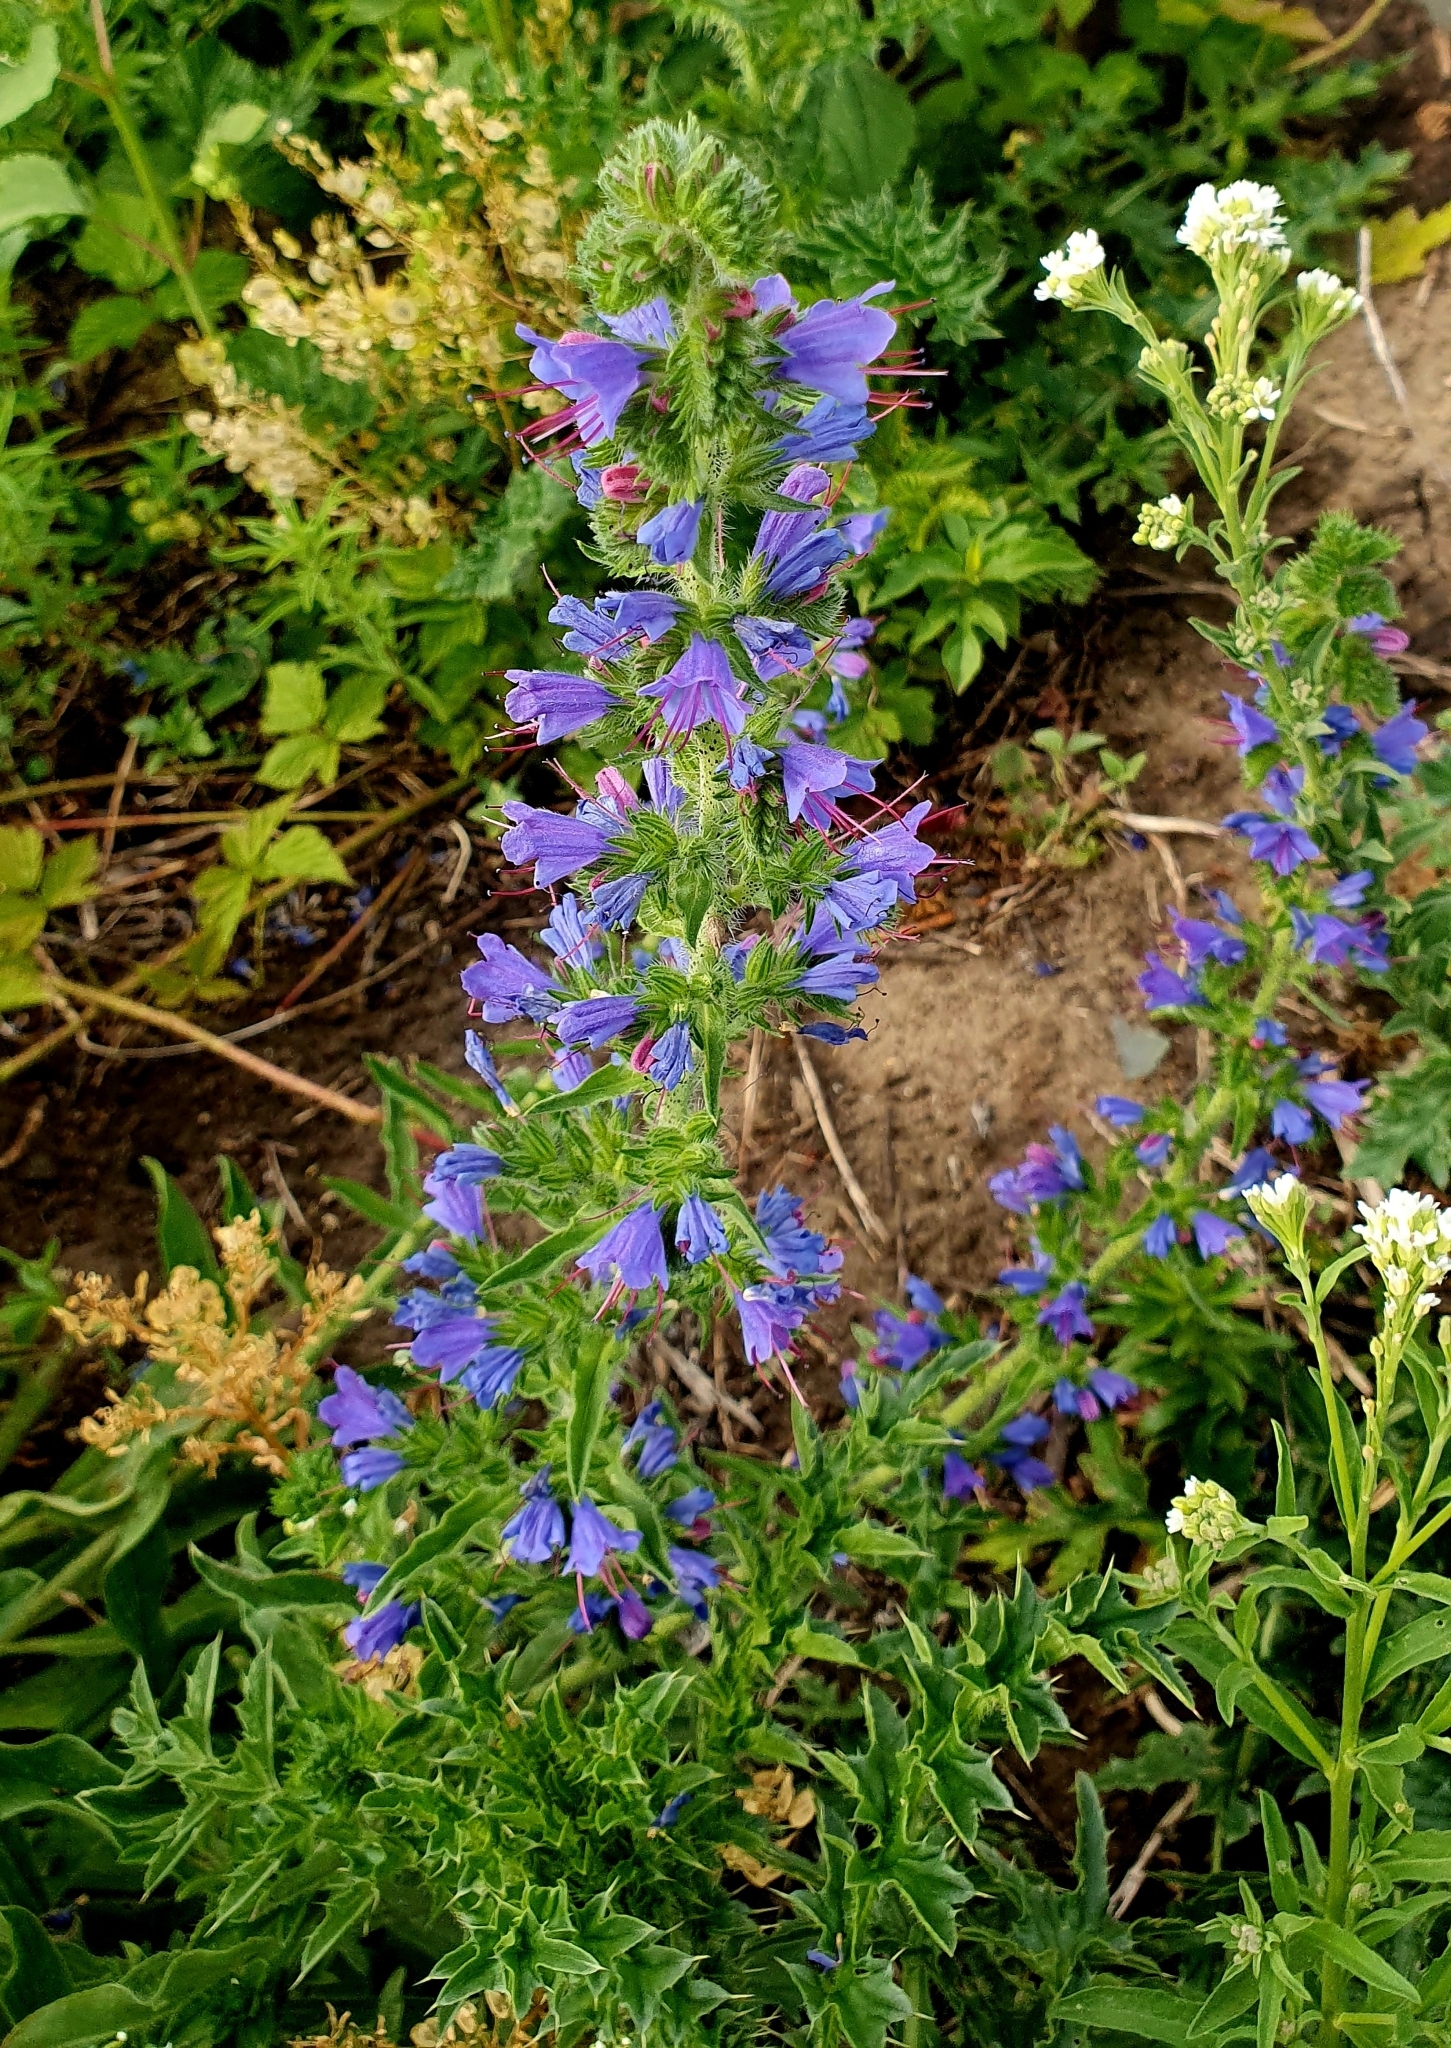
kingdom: Plantae
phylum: Tracheophyta
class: Magnoliopsida
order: Boraginales
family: Boraginaceae
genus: Echium
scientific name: Echium vulgare
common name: Common viper's bugloss
